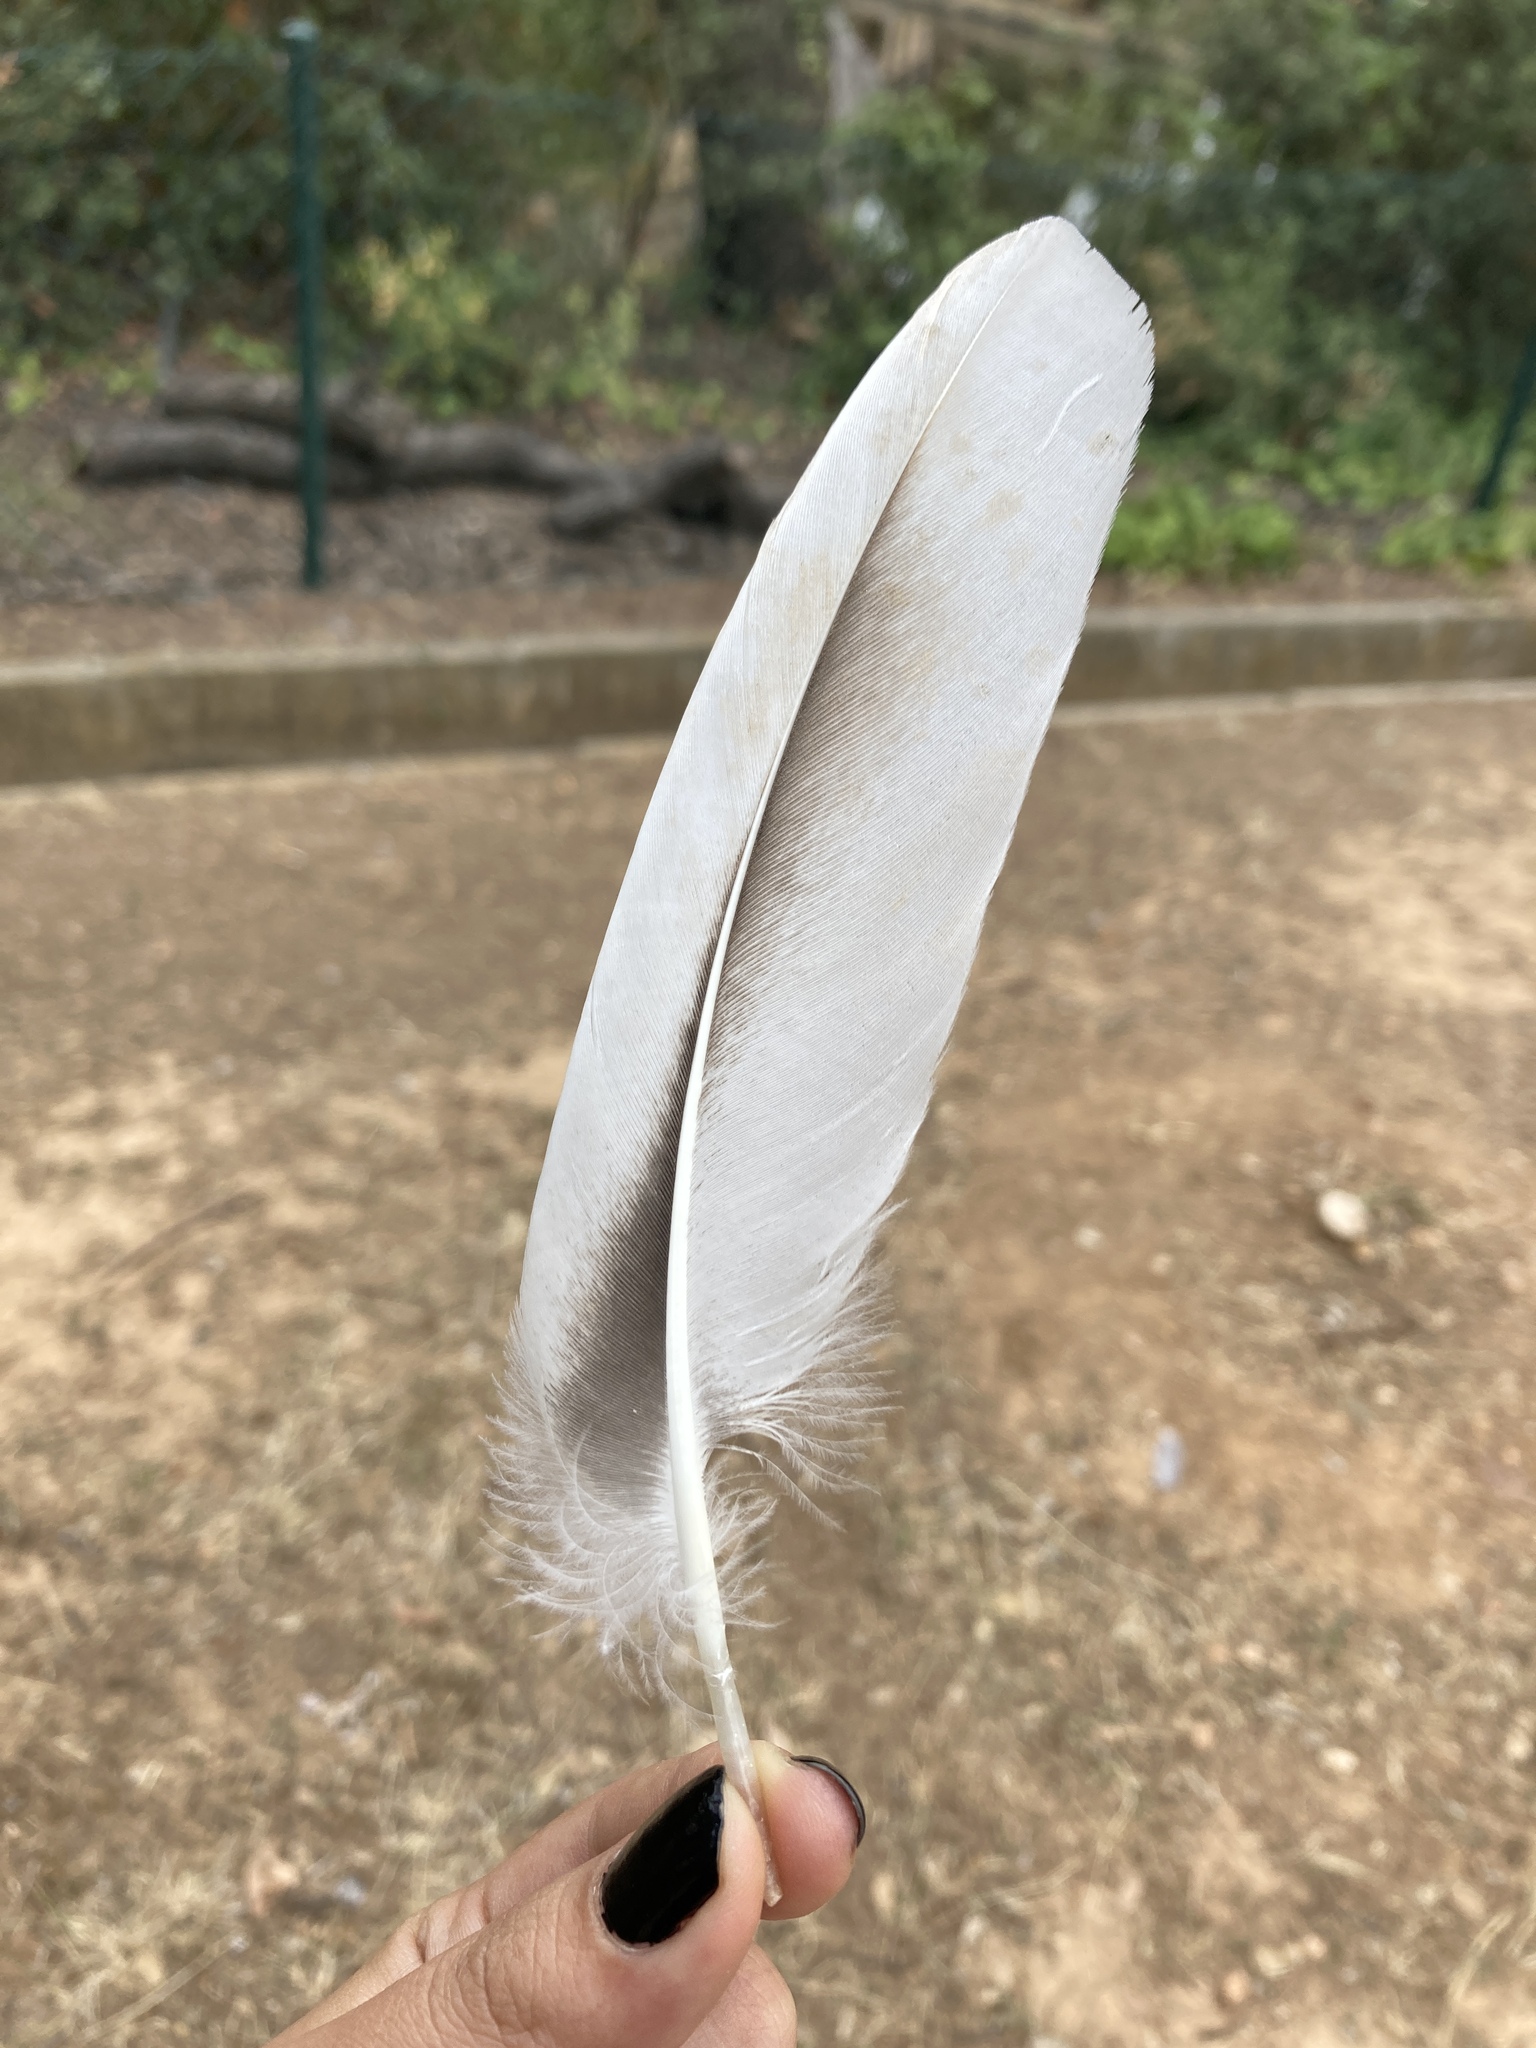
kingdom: Animalia
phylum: Chordata
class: Aves
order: Anseriformes
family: Anatidae
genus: Anser
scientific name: Anser anser
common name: Greylag goose
